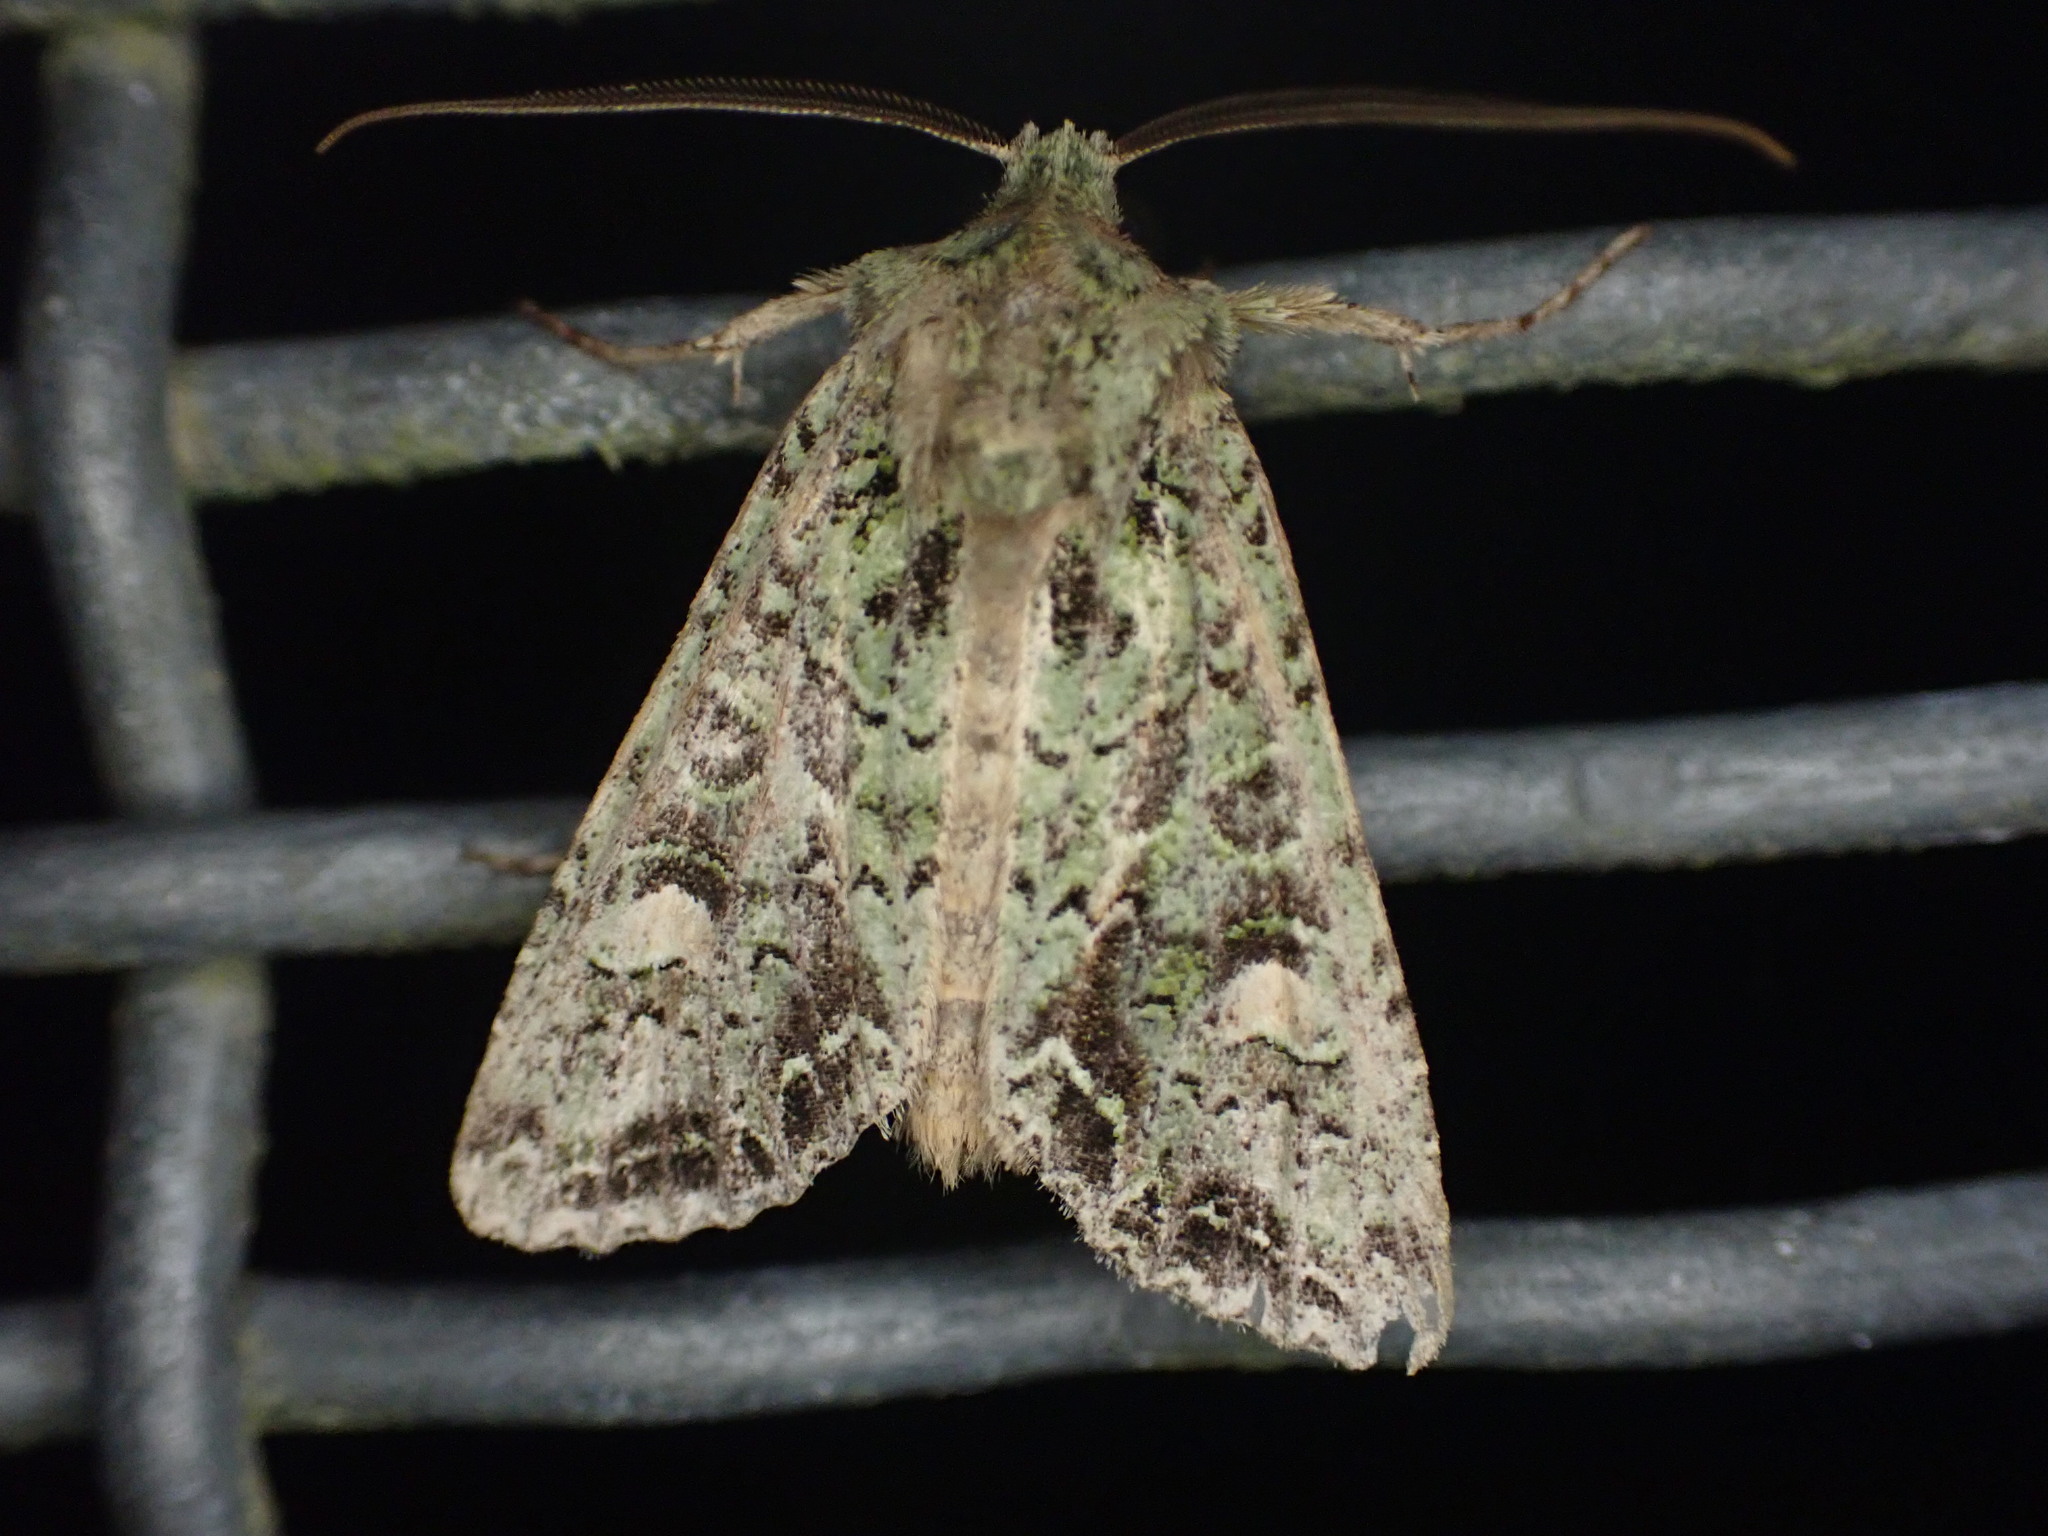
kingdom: Animalia
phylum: Arthropoda
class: Insecta
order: Lepidoptera
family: Noctuidae
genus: Ichneutica
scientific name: Ichneutica
